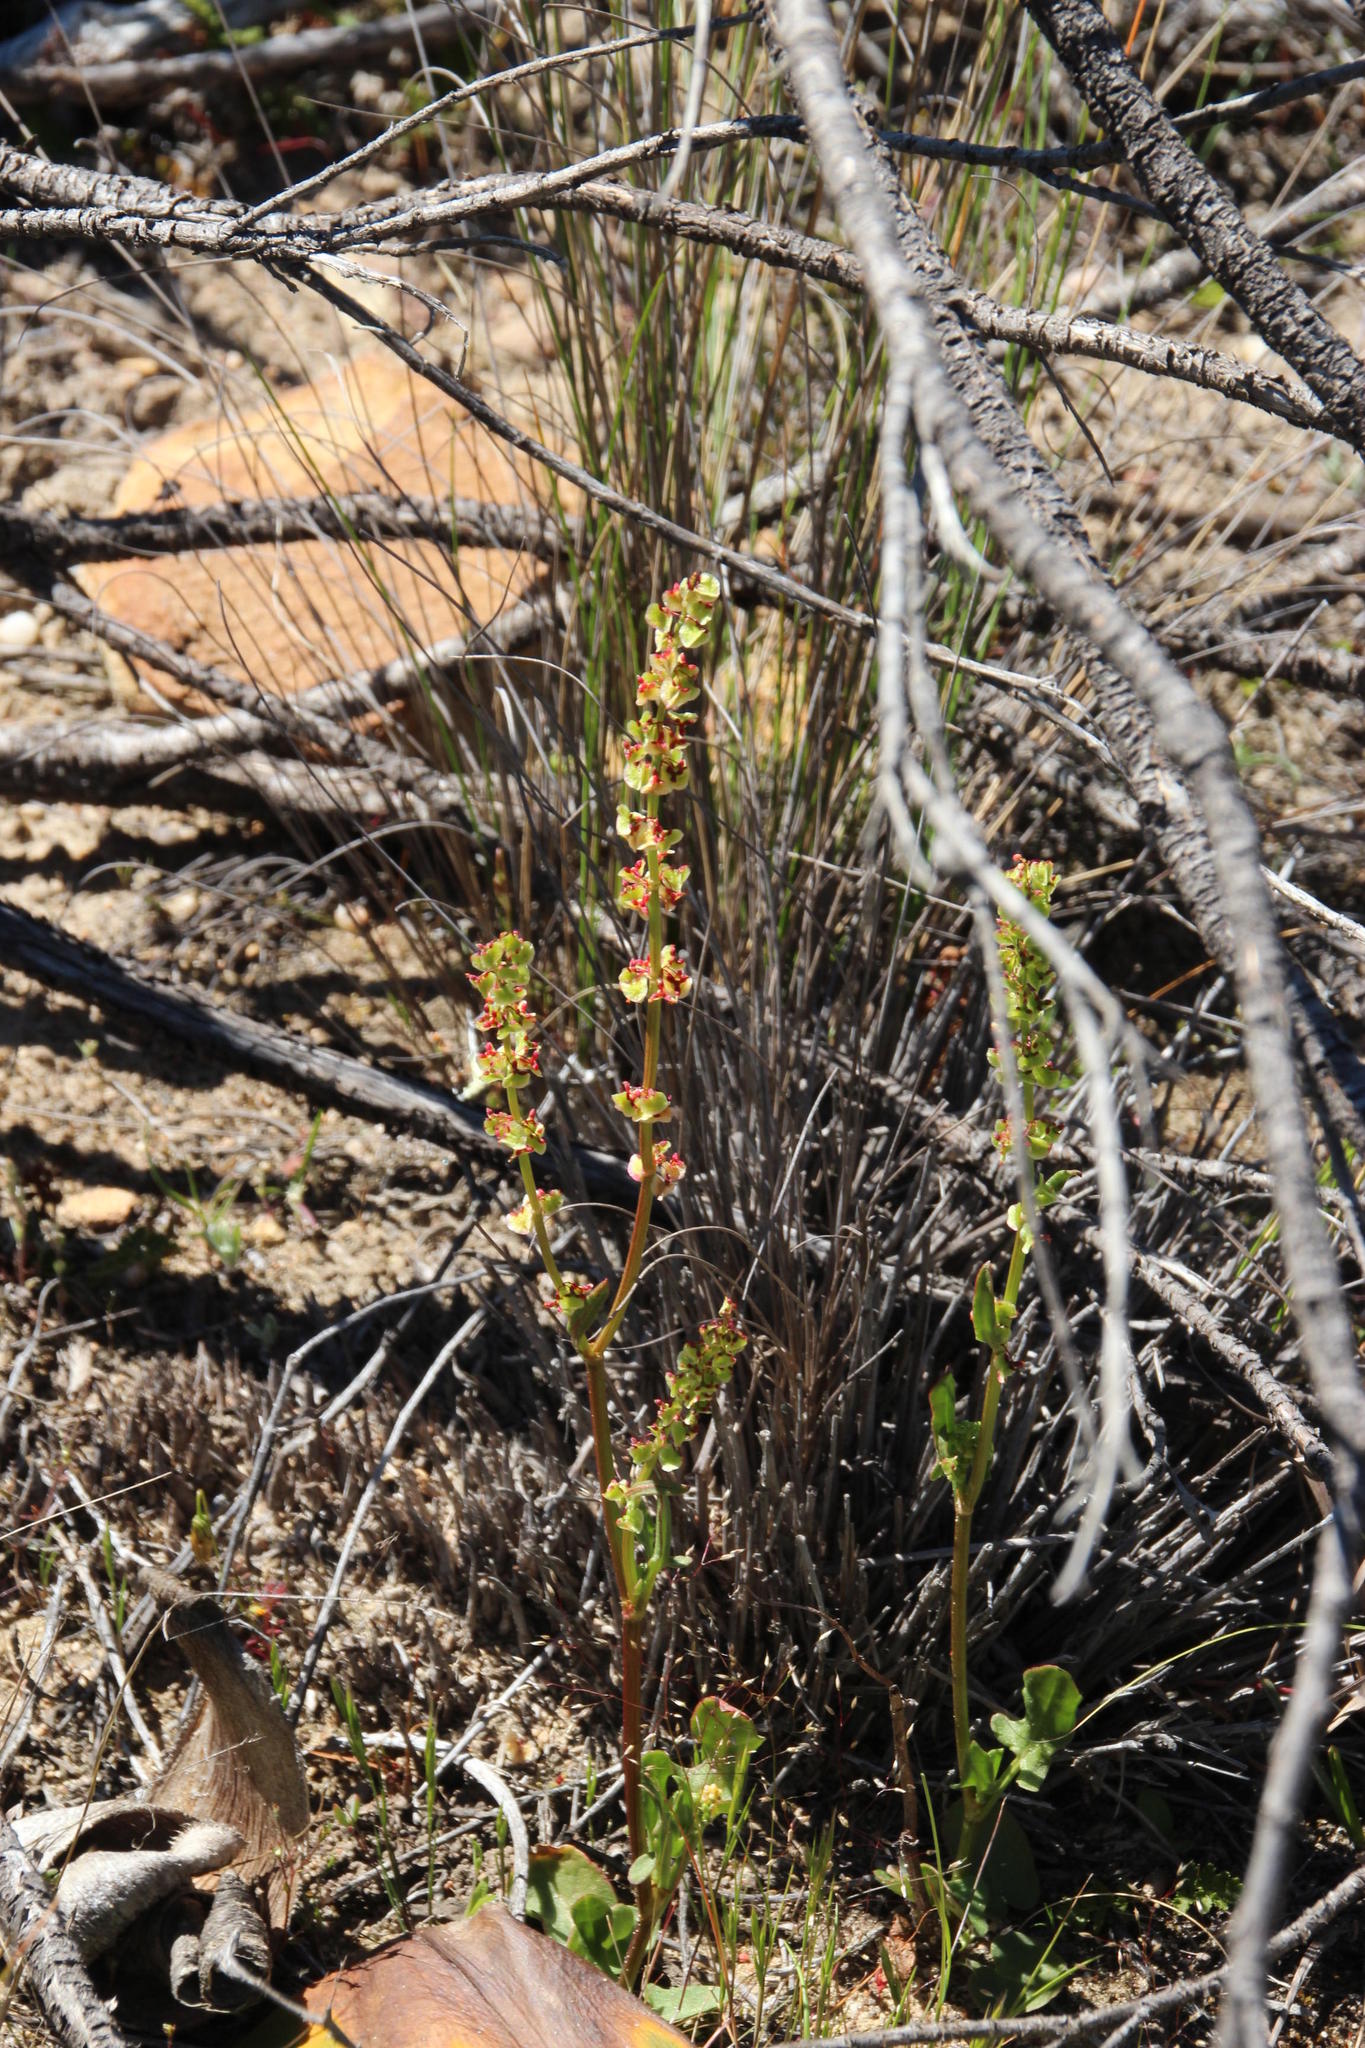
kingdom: Plantae
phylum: Tracheophyta
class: Magnoliopsida
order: Caryophyllales
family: Polygonaceae
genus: Rumex
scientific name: Rumex cordatus
